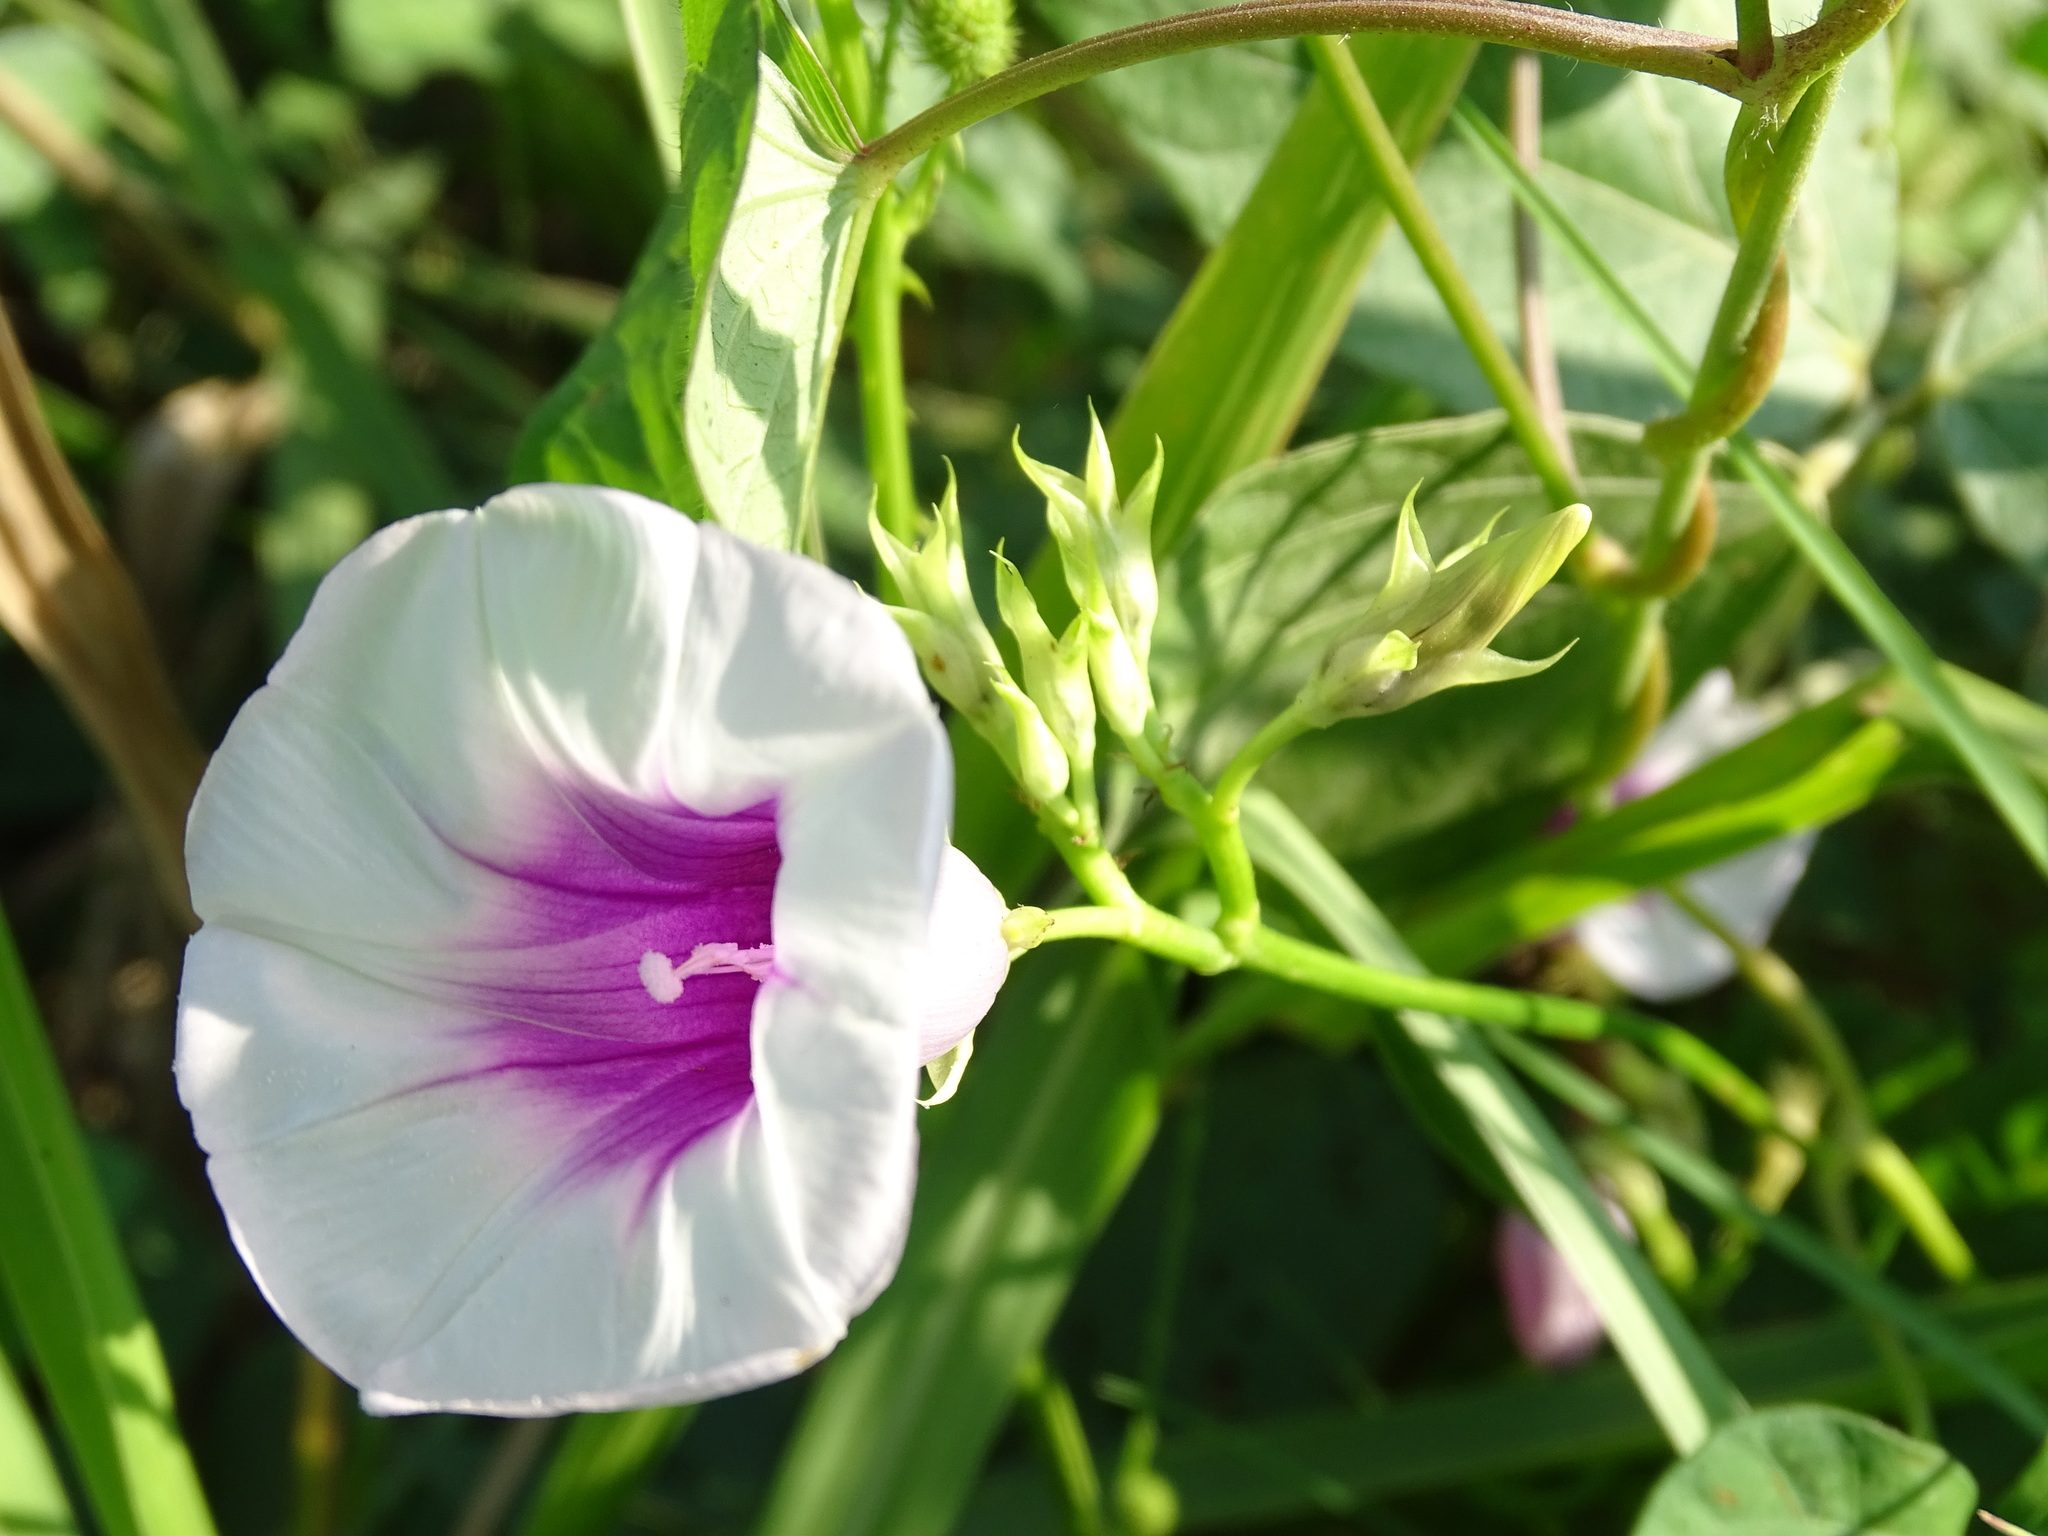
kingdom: Plantae
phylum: Tracheophyta
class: Magnoliopsida
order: Solanales
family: Convolvulaceae
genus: Ipomoea
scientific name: Ipomoea batatas
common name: Sweet-potato
